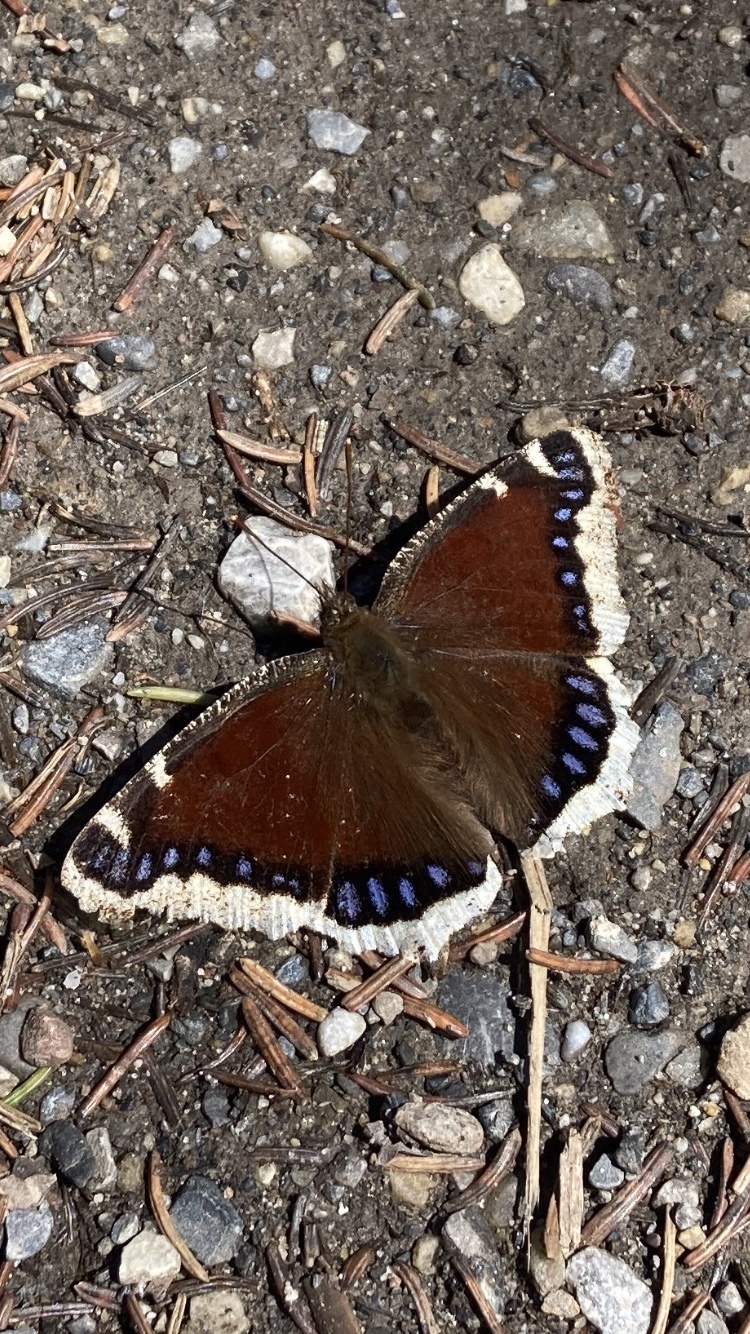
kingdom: Animalia
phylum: Arthropoda
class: Insecta
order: Lepidoptera
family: Nymphalidae
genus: Nymphalis
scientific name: Nymphalis antiopa
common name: Camberwell beauty
